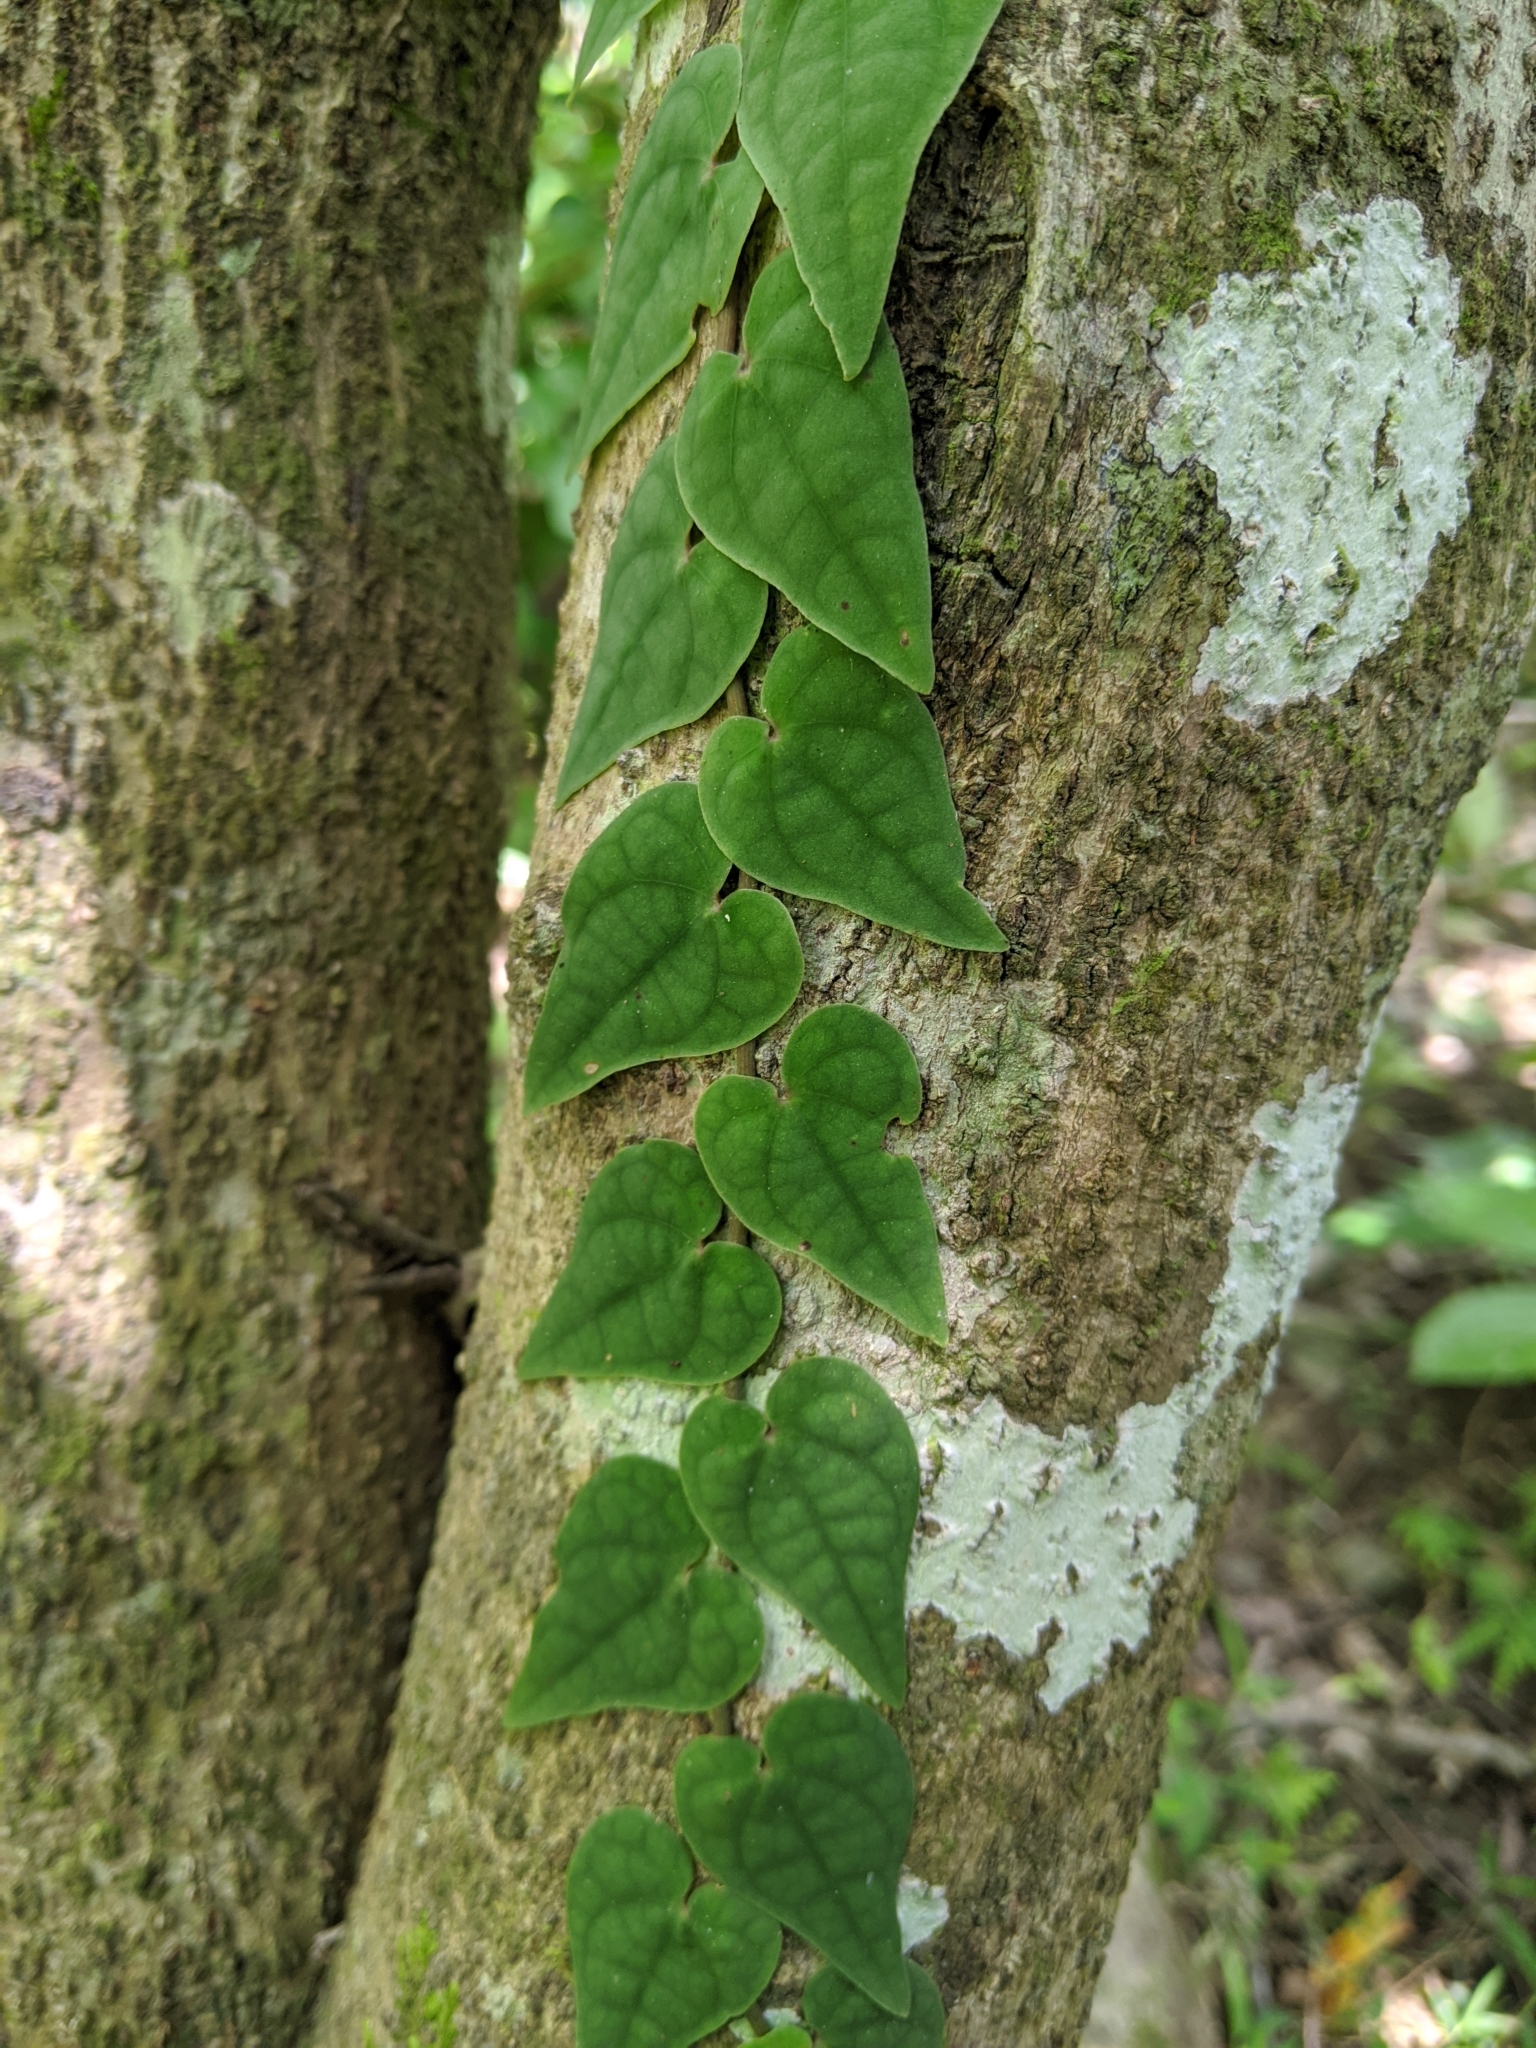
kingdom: Plantae
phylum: Tracheophyta
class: Magnoliopsida
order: Piperales
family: Piperaceae
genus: Piper
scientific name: Piper taiwanense
